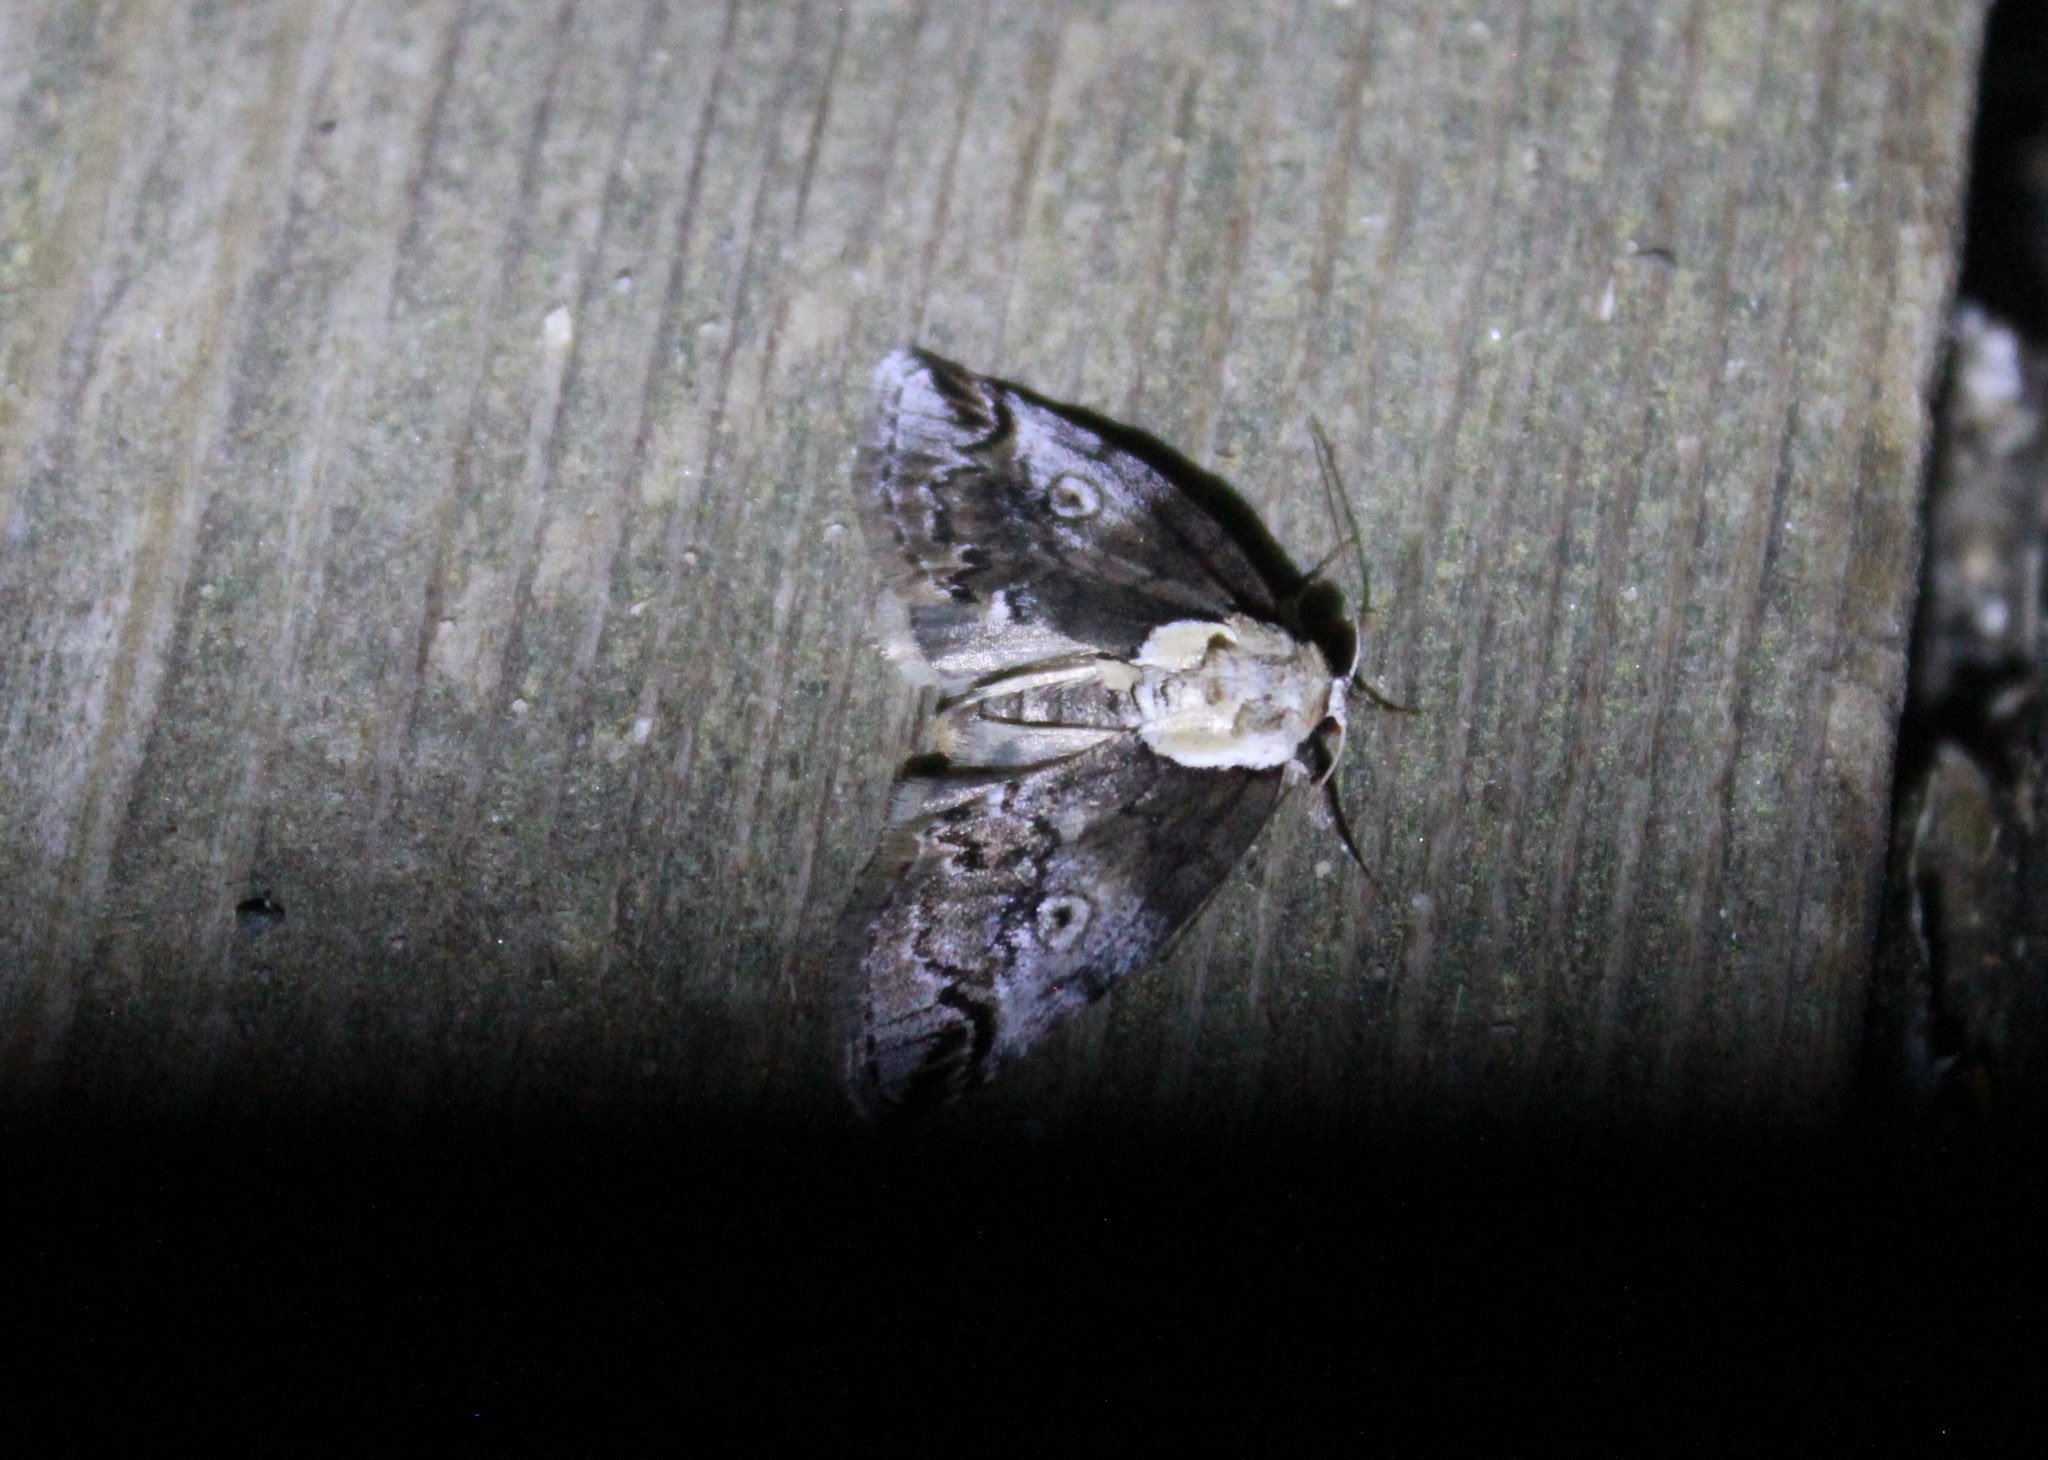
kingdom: Animalia
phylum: Arthropoda
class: Insecta
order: Lepidoptera
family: Nolidae
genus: Baileya
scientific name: Baileya ophthalmica
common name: Eyed baileya moth
